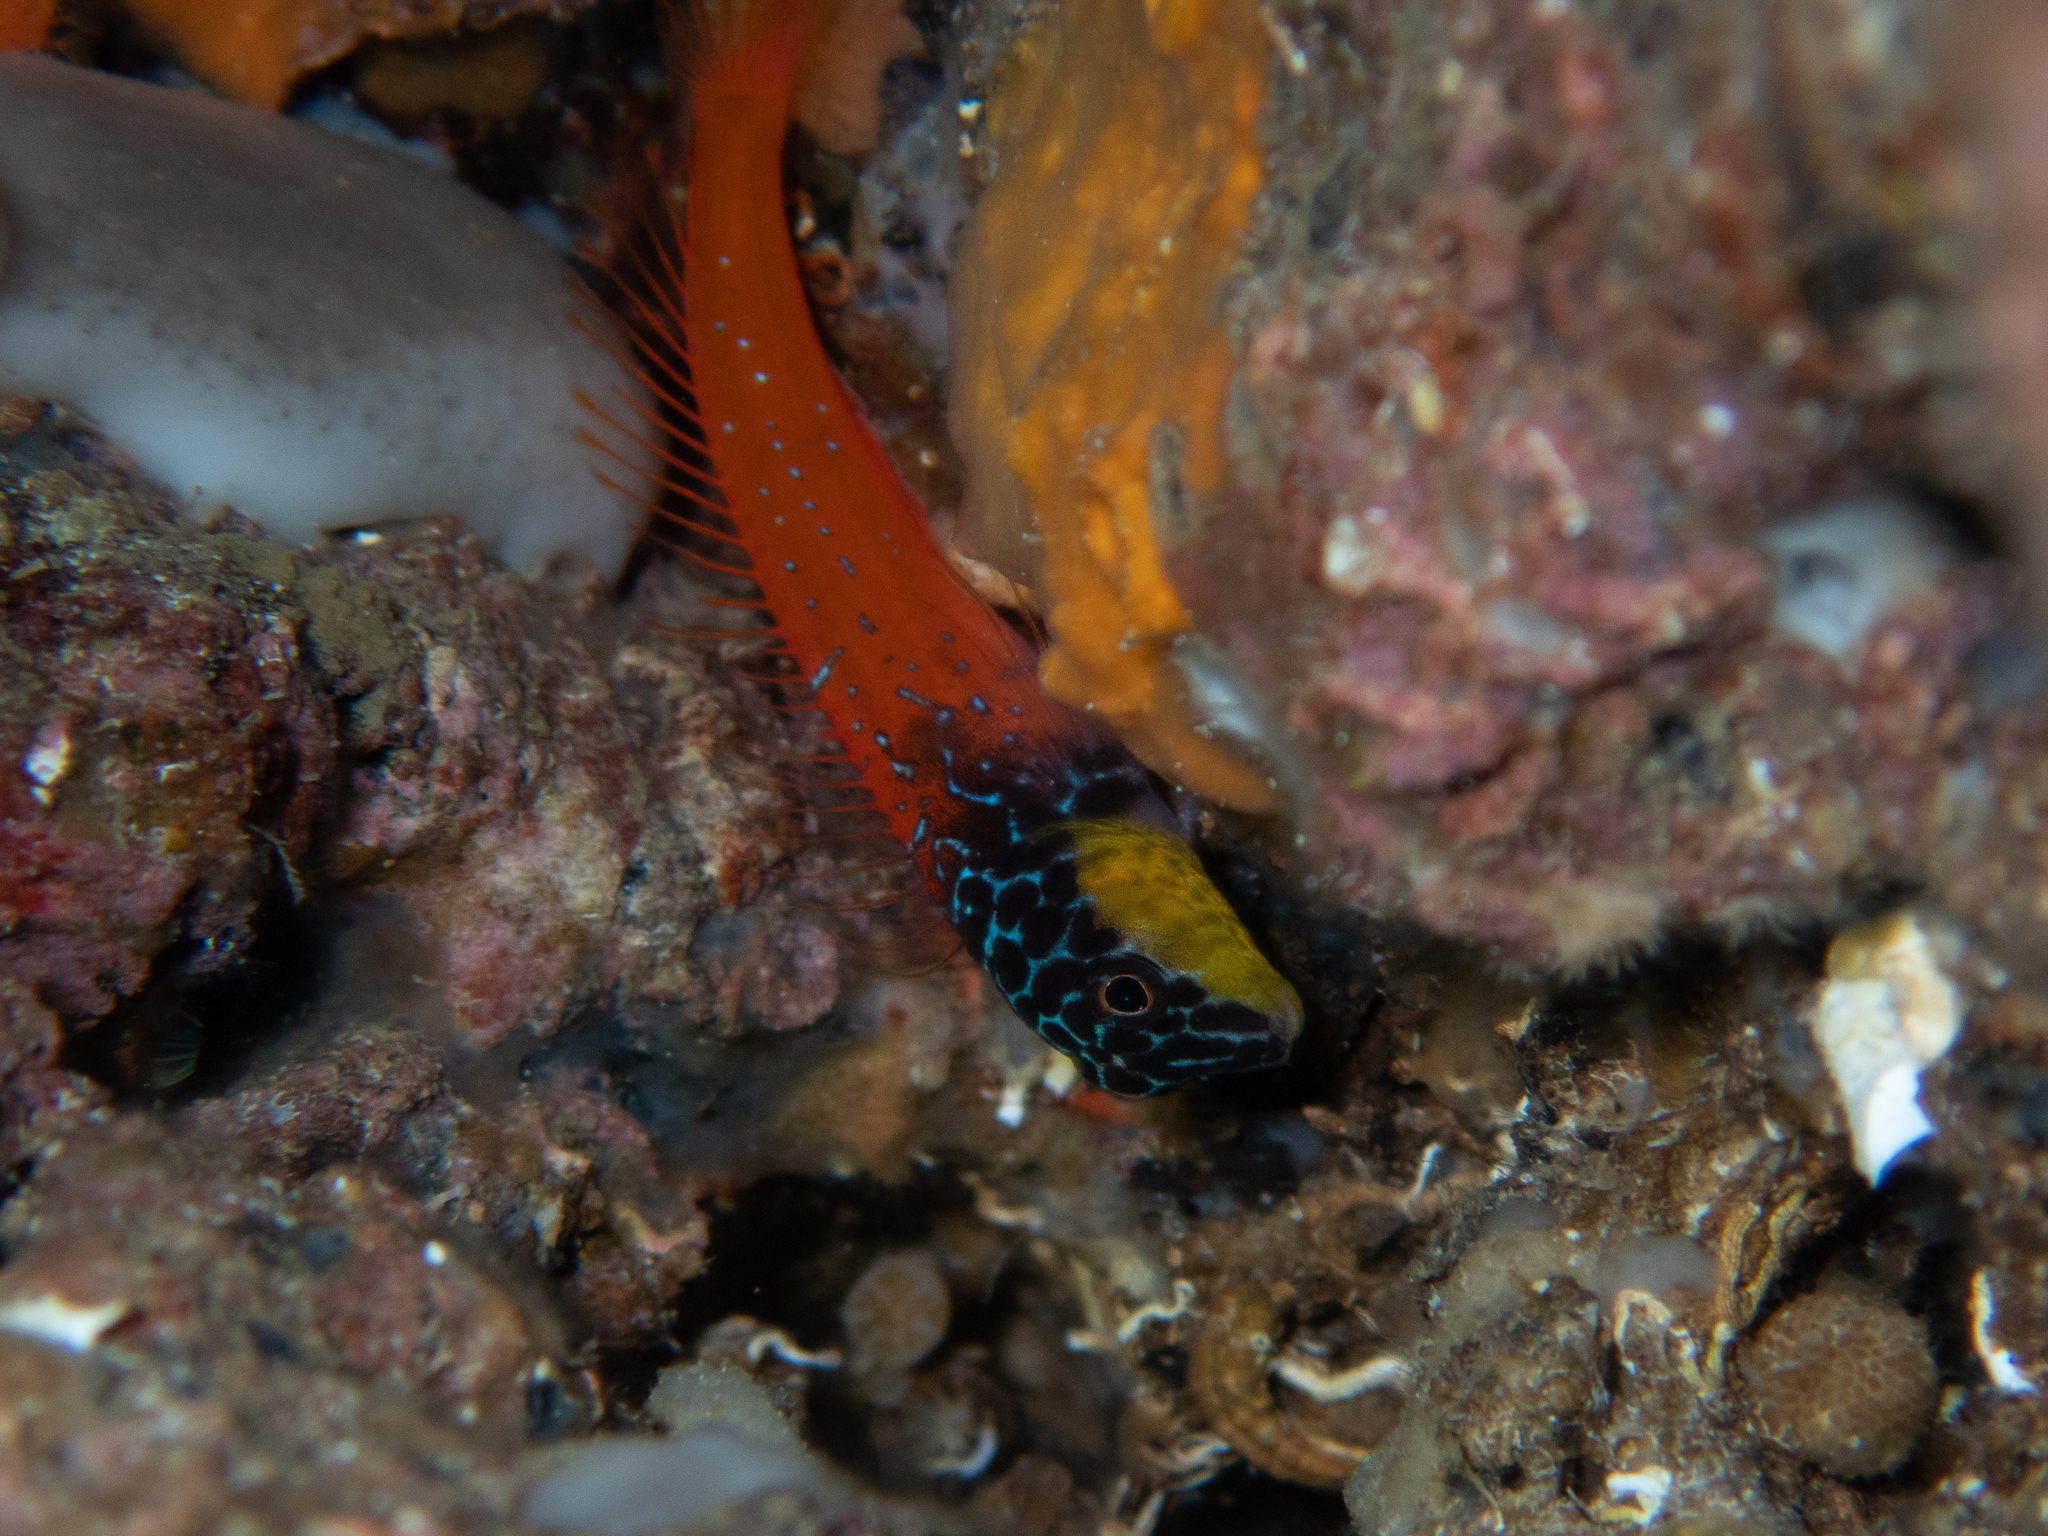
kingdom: Animalia
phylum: Chordata
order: Perciformes
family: Blenniidae
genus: Microlipophrys
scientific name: Microlipophrys nigriceps
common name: Black-headed blenny
